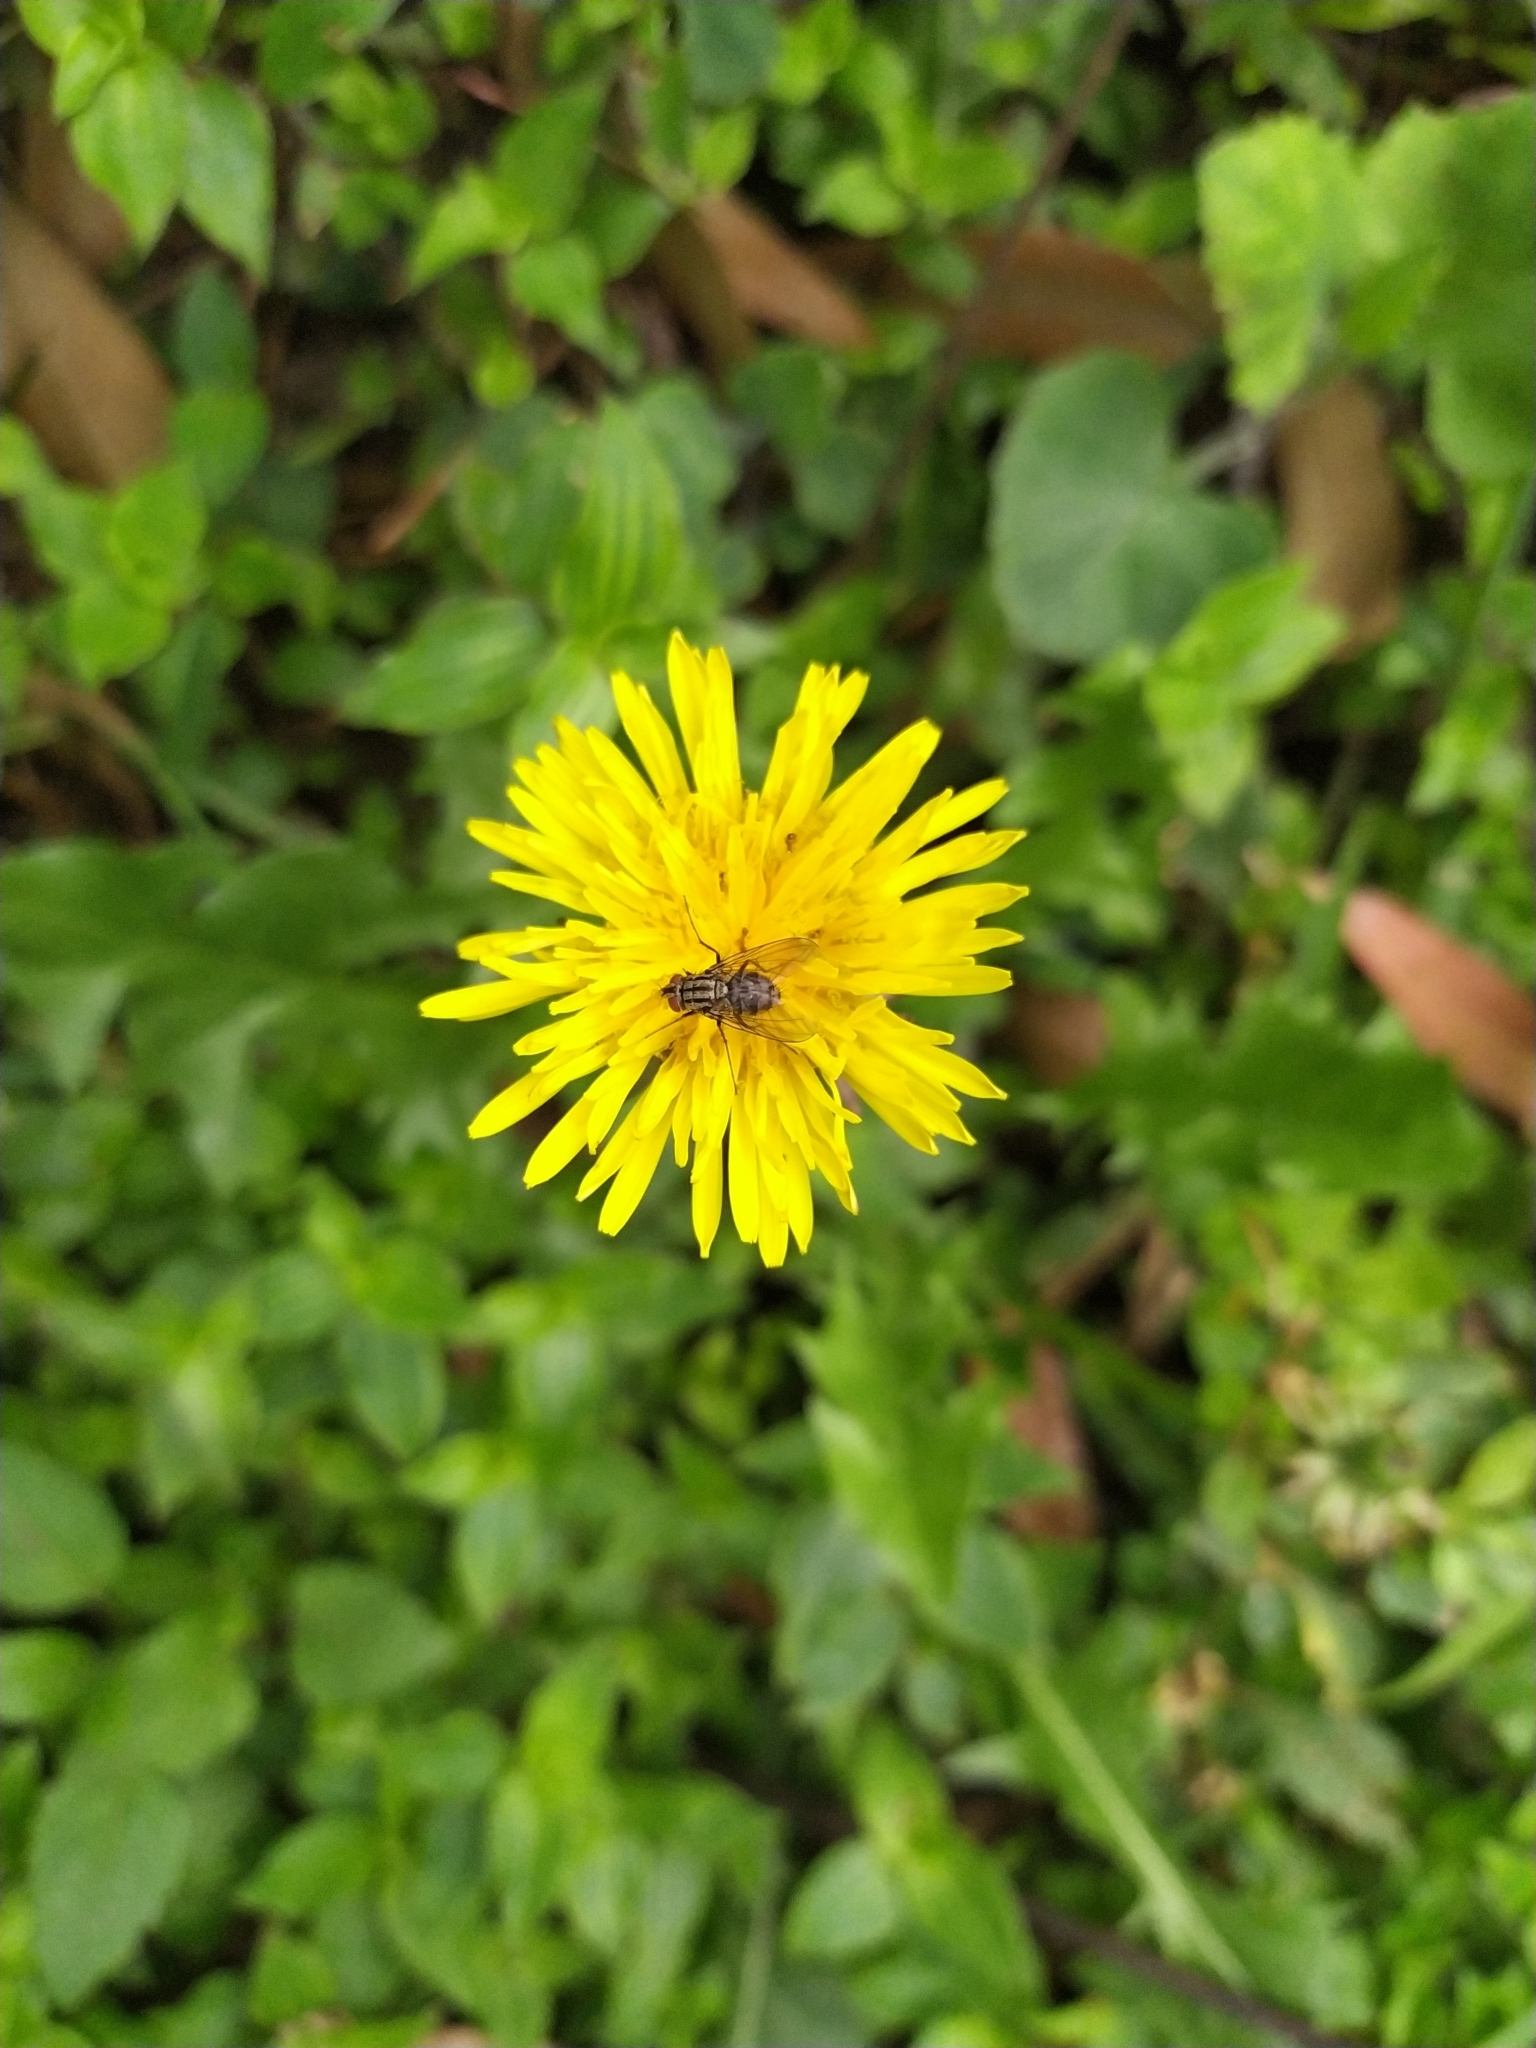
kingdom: Plantae
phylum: Tracheophyta
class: Magnoliopsida
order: Asterales
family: Asteraceae
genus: Taraxacum
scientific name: Taraxacum officinale
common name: Common dandelion
